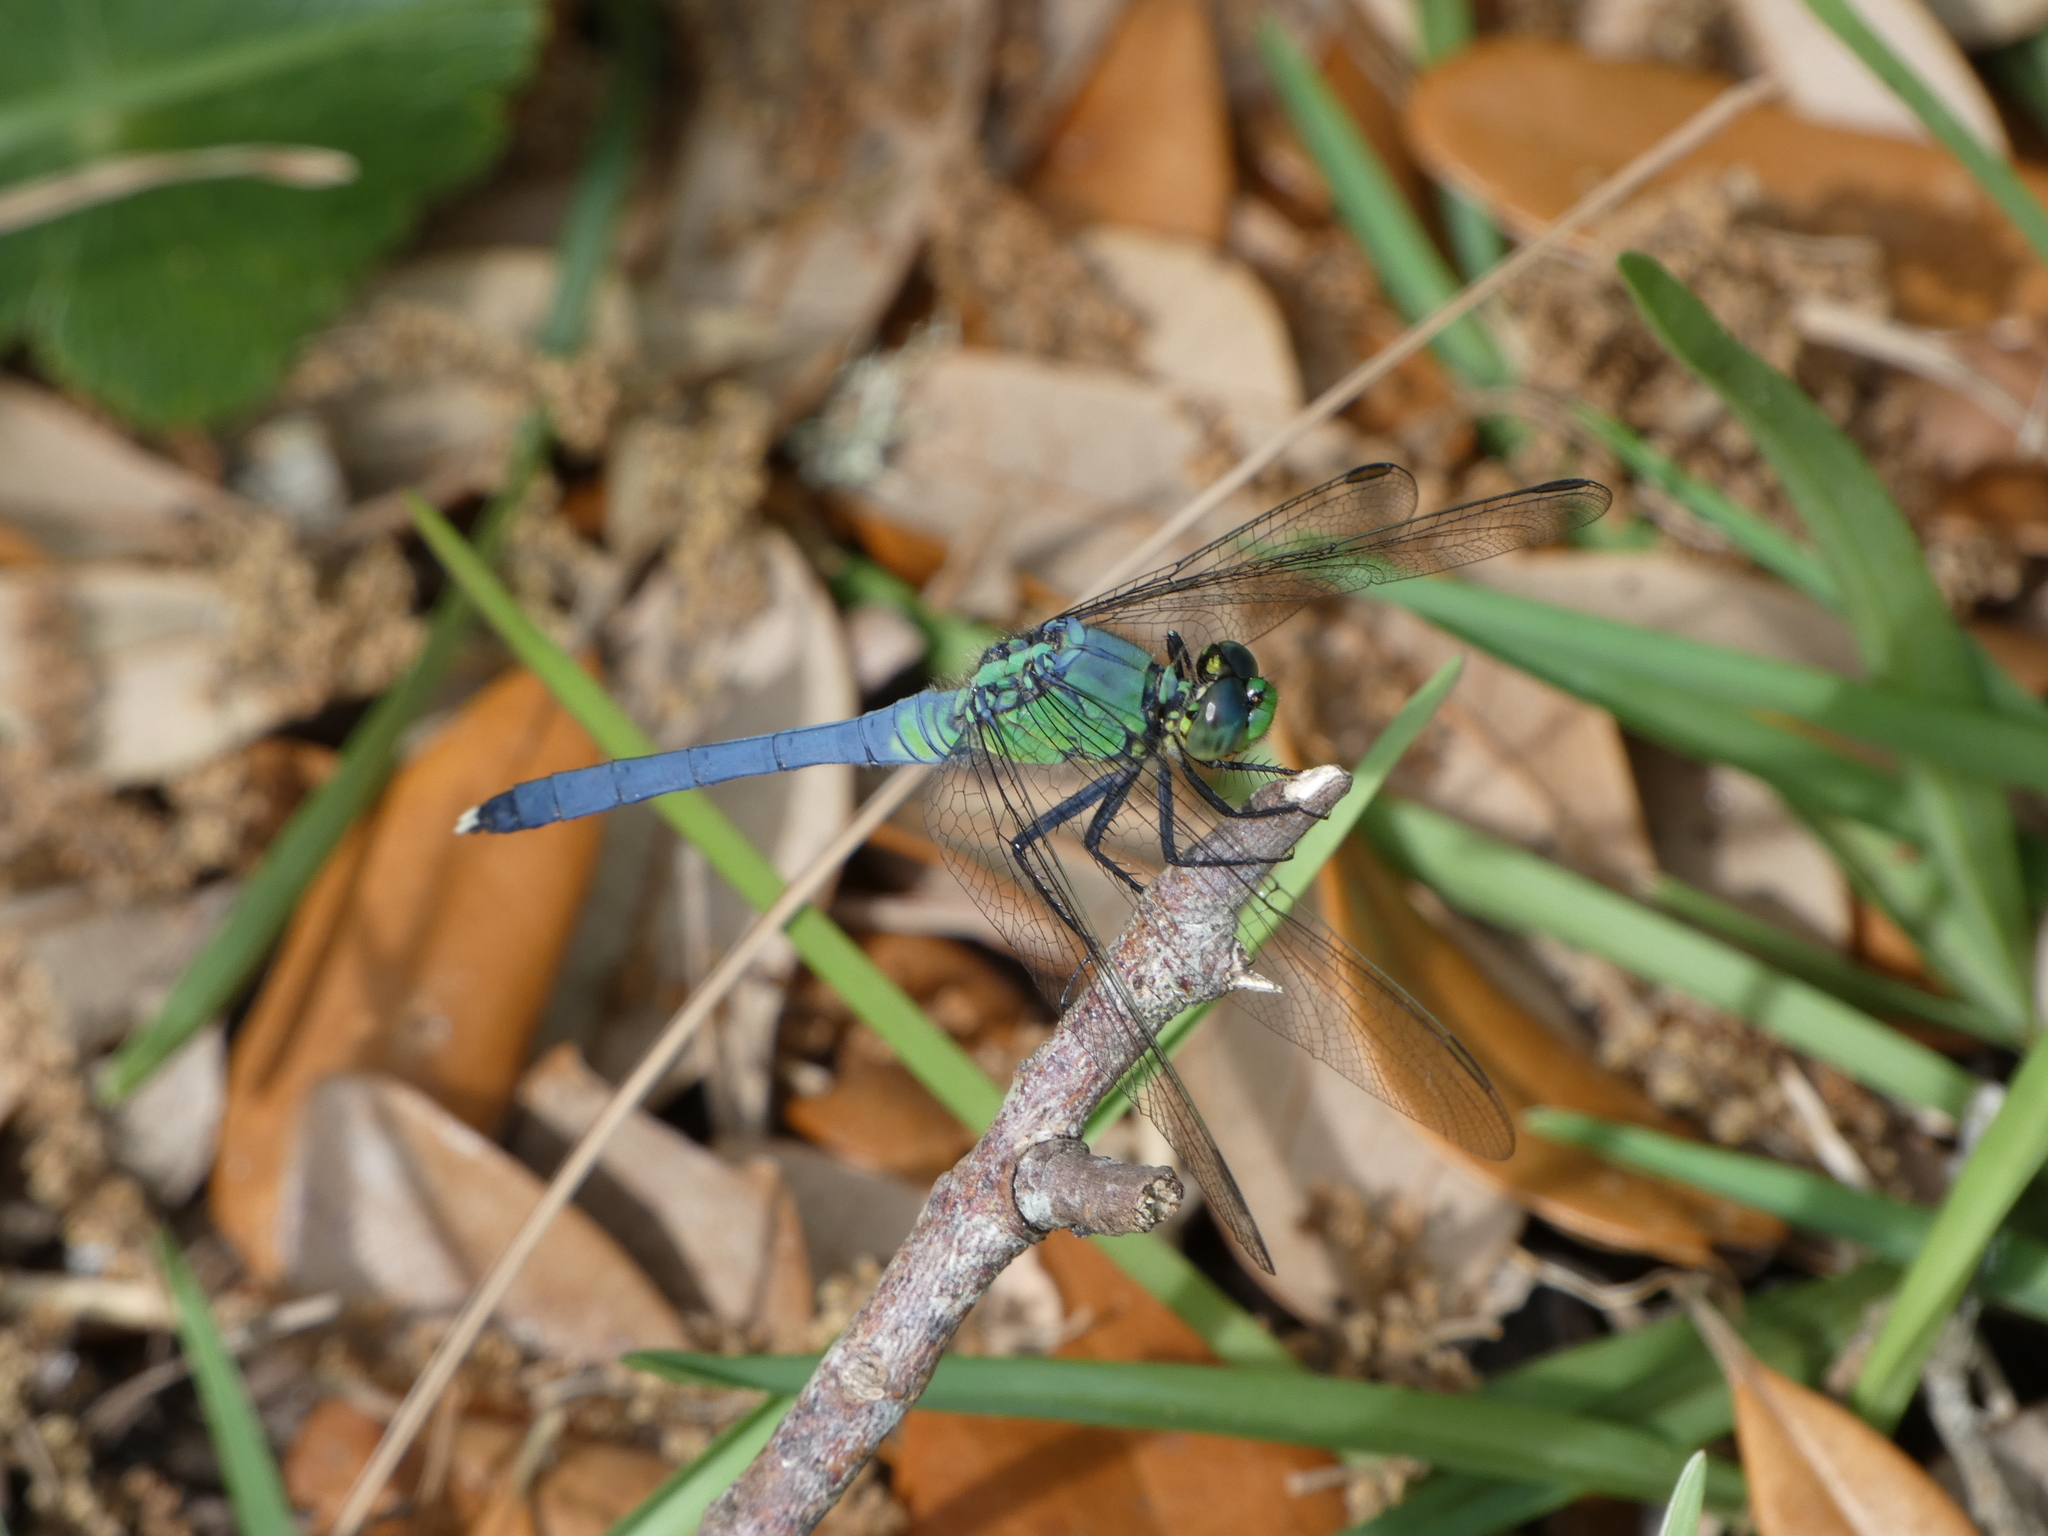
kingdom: Animalia
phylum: Arthropoda
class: Insecta
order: Odonata
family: Libellulidae
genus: Erythemis
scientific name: Erythemis simplicicollis
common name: Eastern pondhawk
